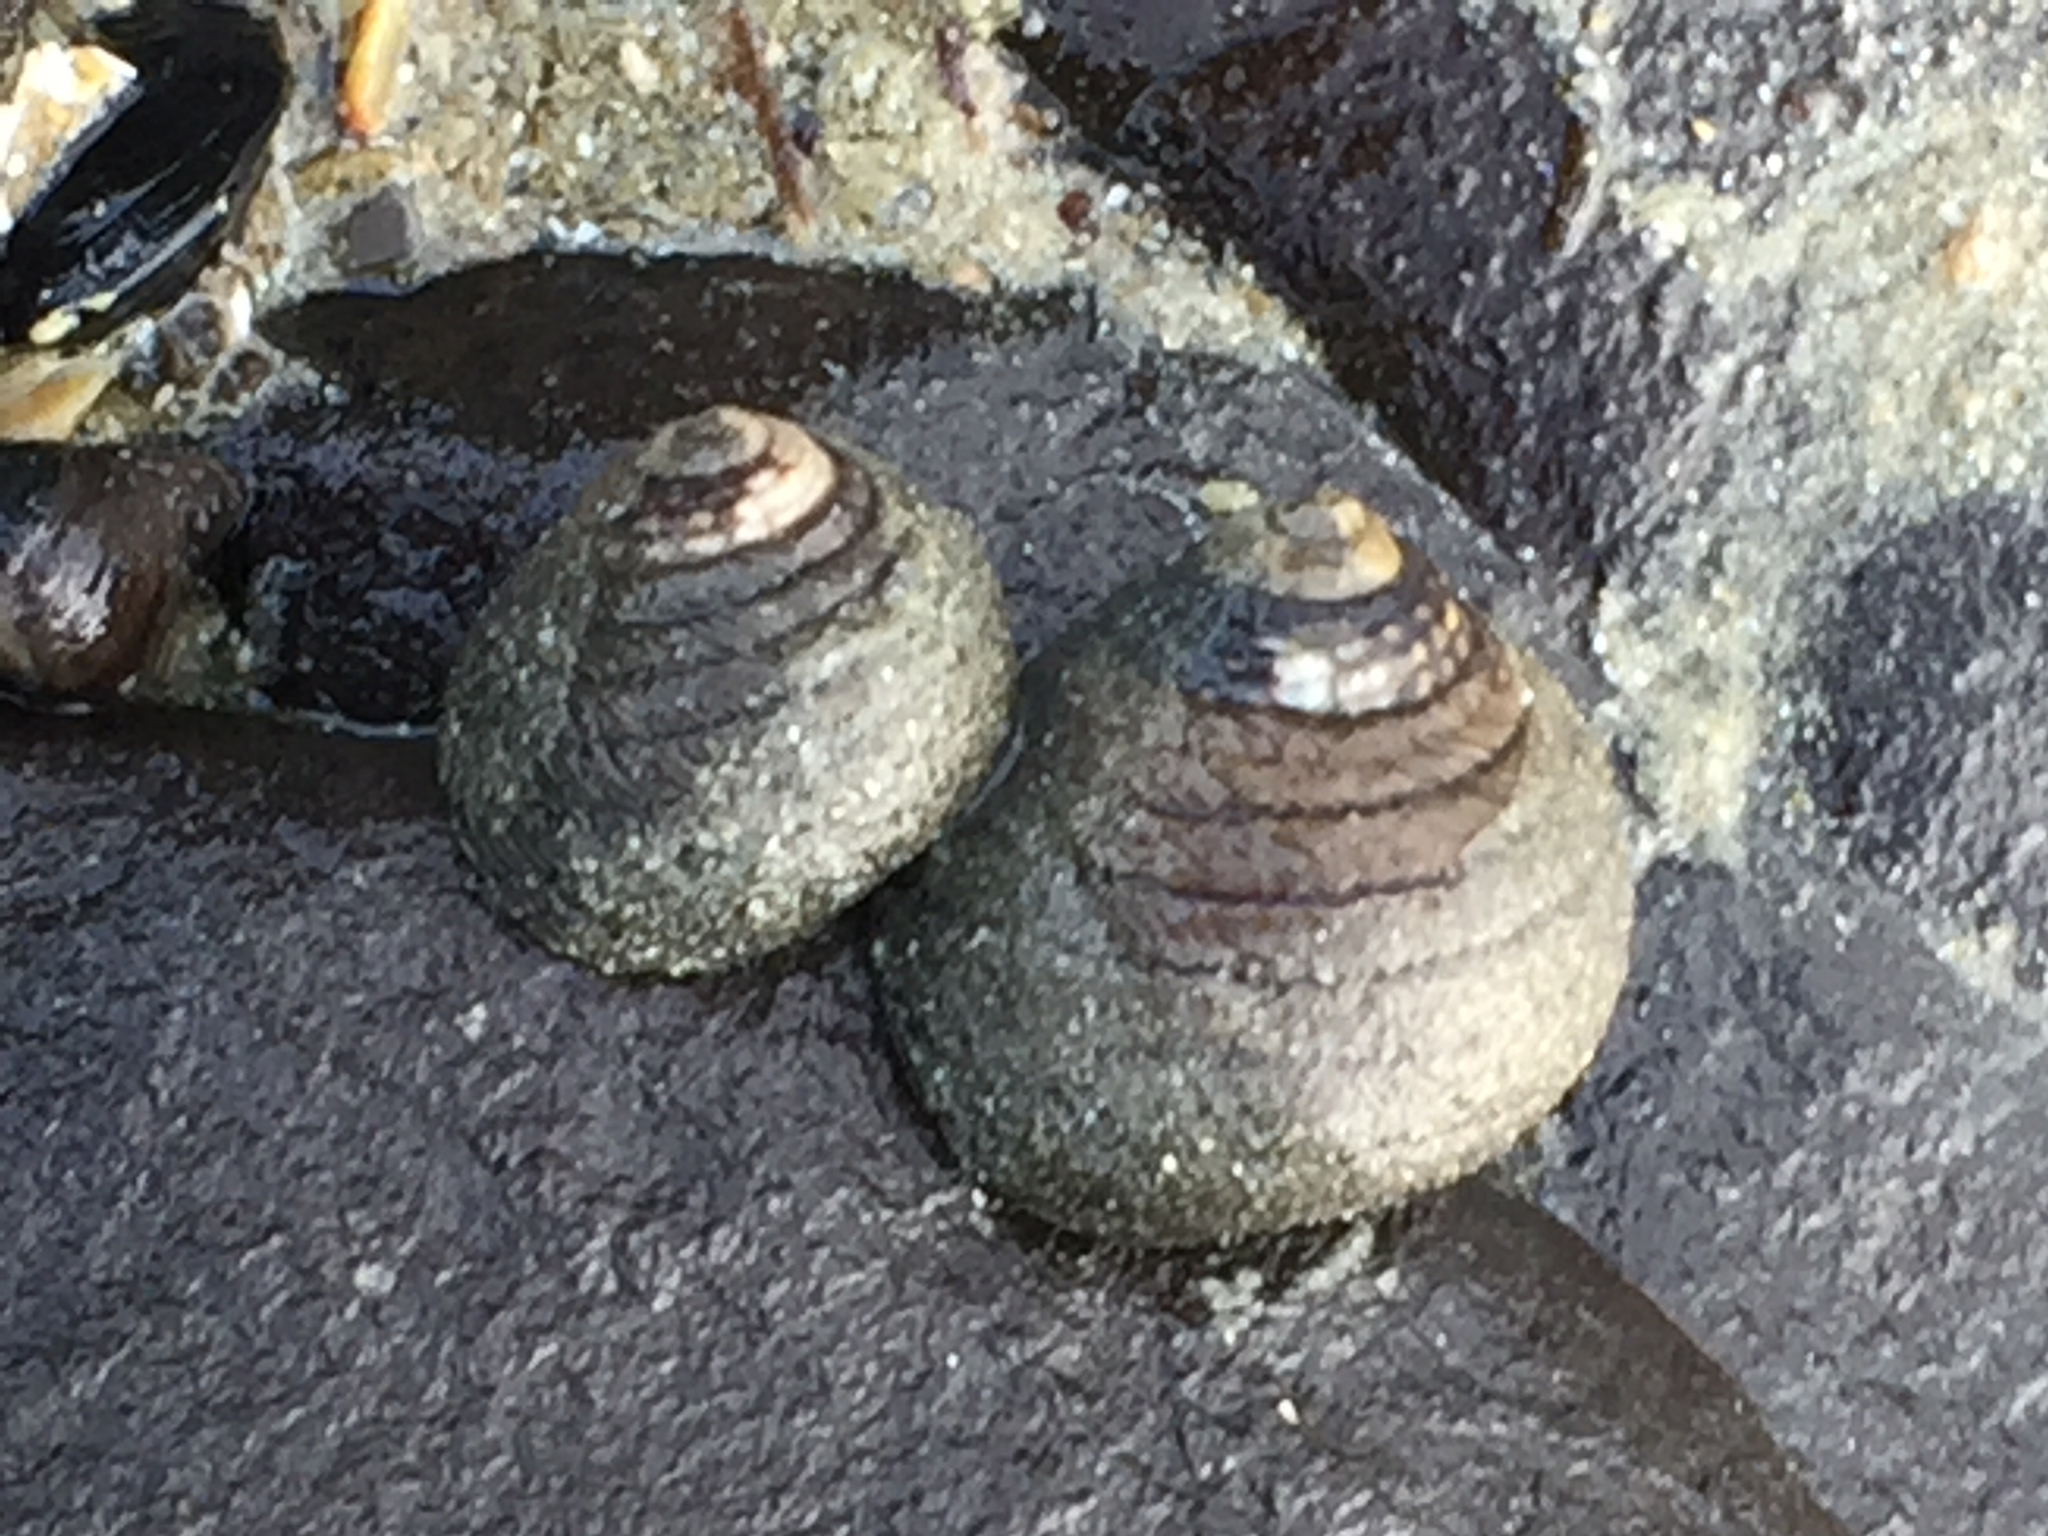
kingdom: Animalia
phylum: Mollusca
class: Gastropoda
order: Trochida
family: Trochidae
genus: Diloma
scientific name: Diloma aethiops
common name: Scorched monodont
